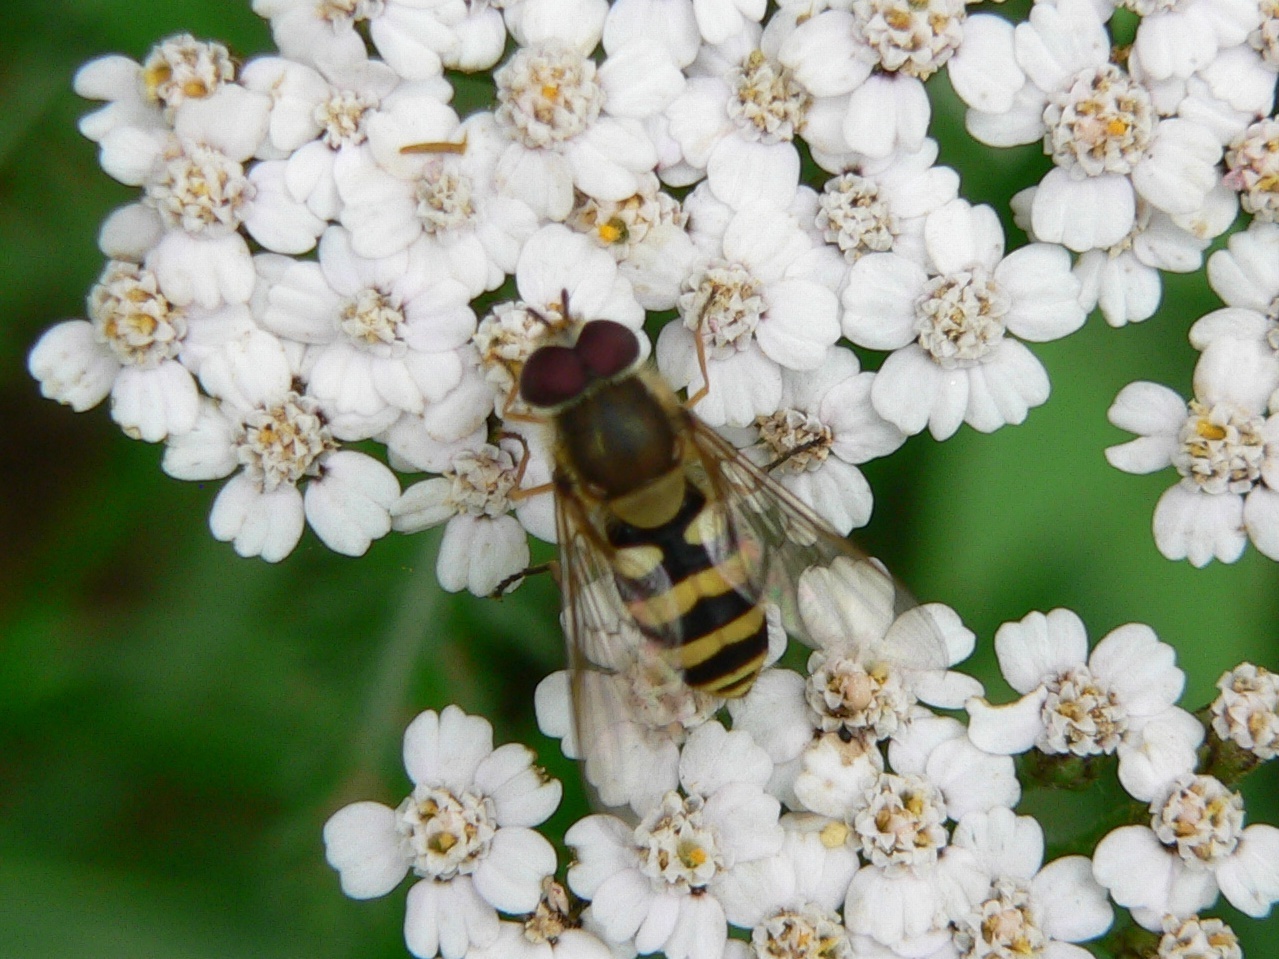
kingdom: Animalia
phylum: Arthropoda
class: Insecta
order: Diptera
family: Syrphidae
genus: Syrphus
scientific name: Syrphus
